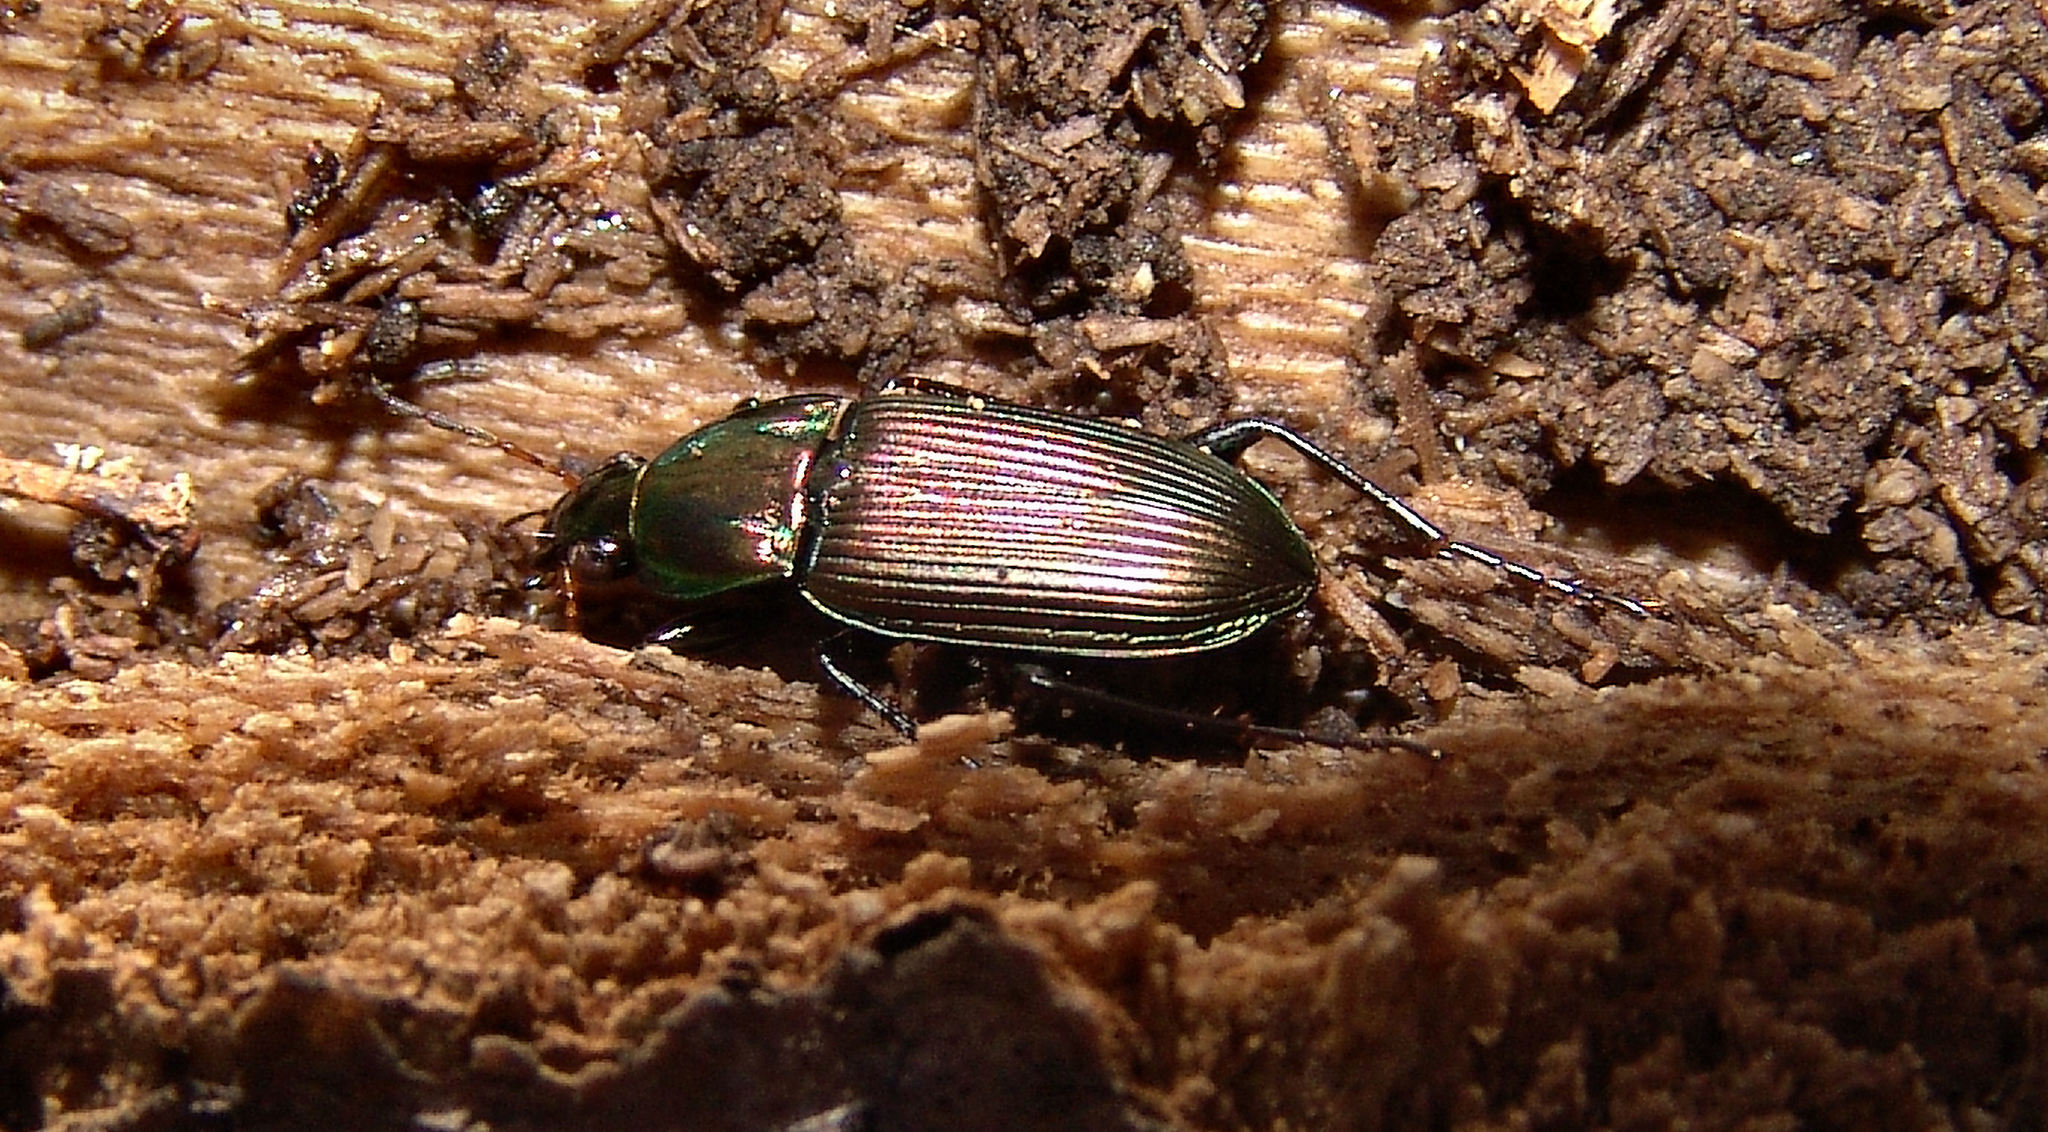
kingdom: Animalia
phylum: Arthropoda
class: Insecta
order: Coleoptera
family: Carabidae
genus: Poecilus
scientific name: Poecilus chalcites
